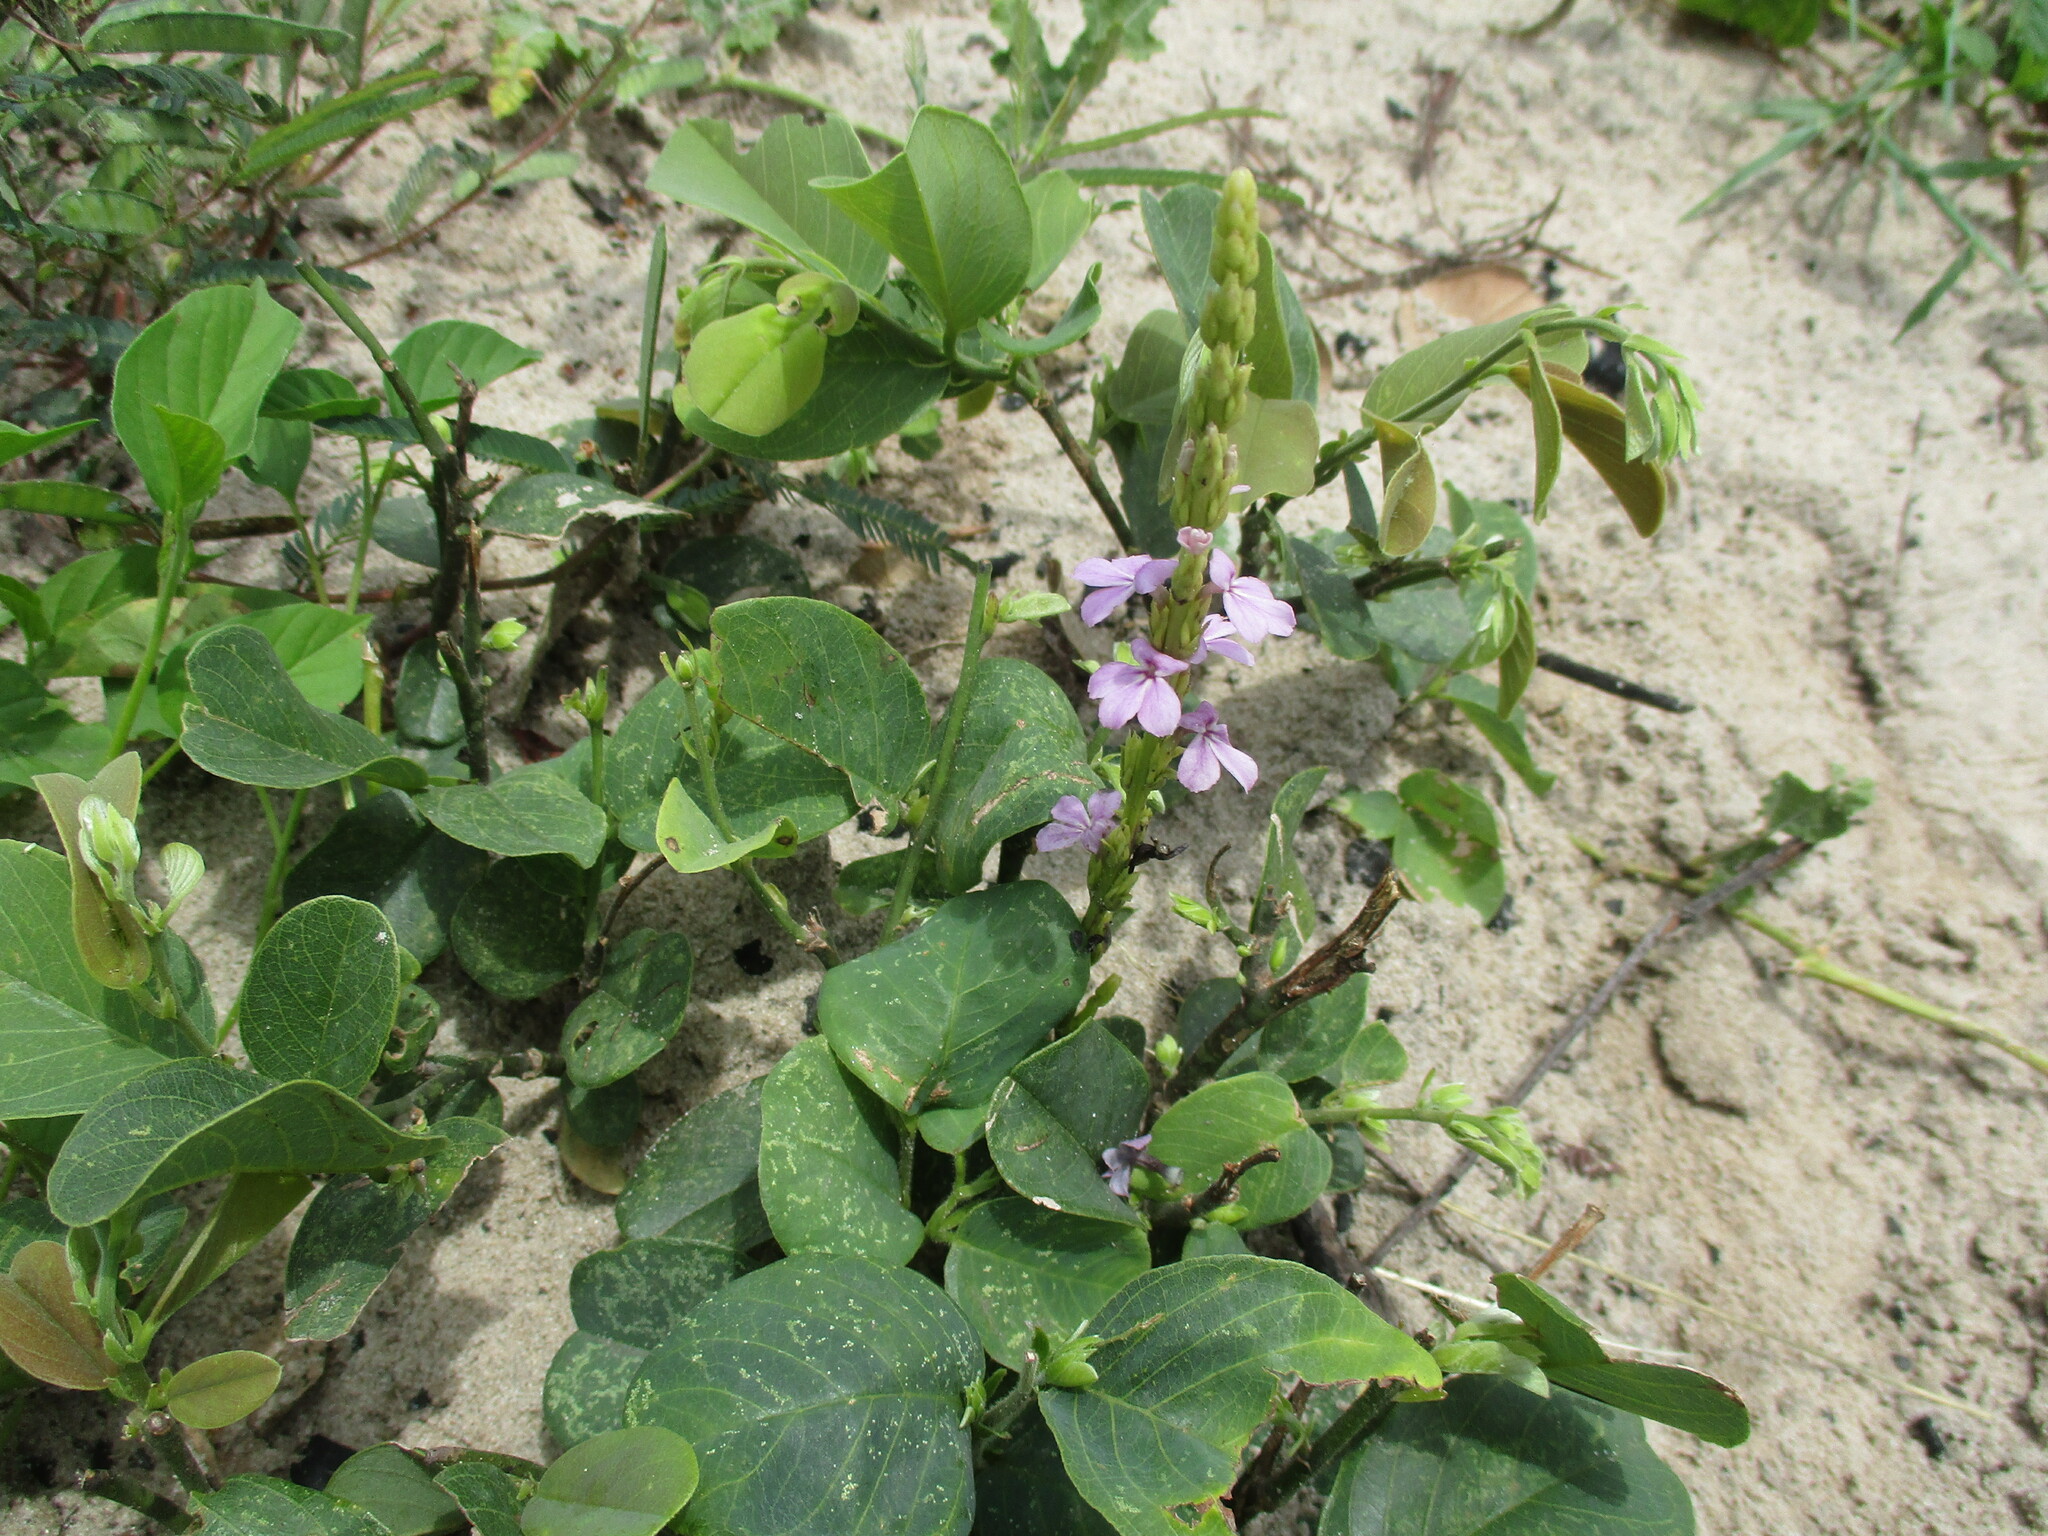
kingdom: Plantae
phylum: Tracheophyta
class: Magnoliopsida
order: Lamiales
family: Orobanchaceae
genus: Striga
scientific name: Striga gesnerioides
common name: Cowpea witchweed
